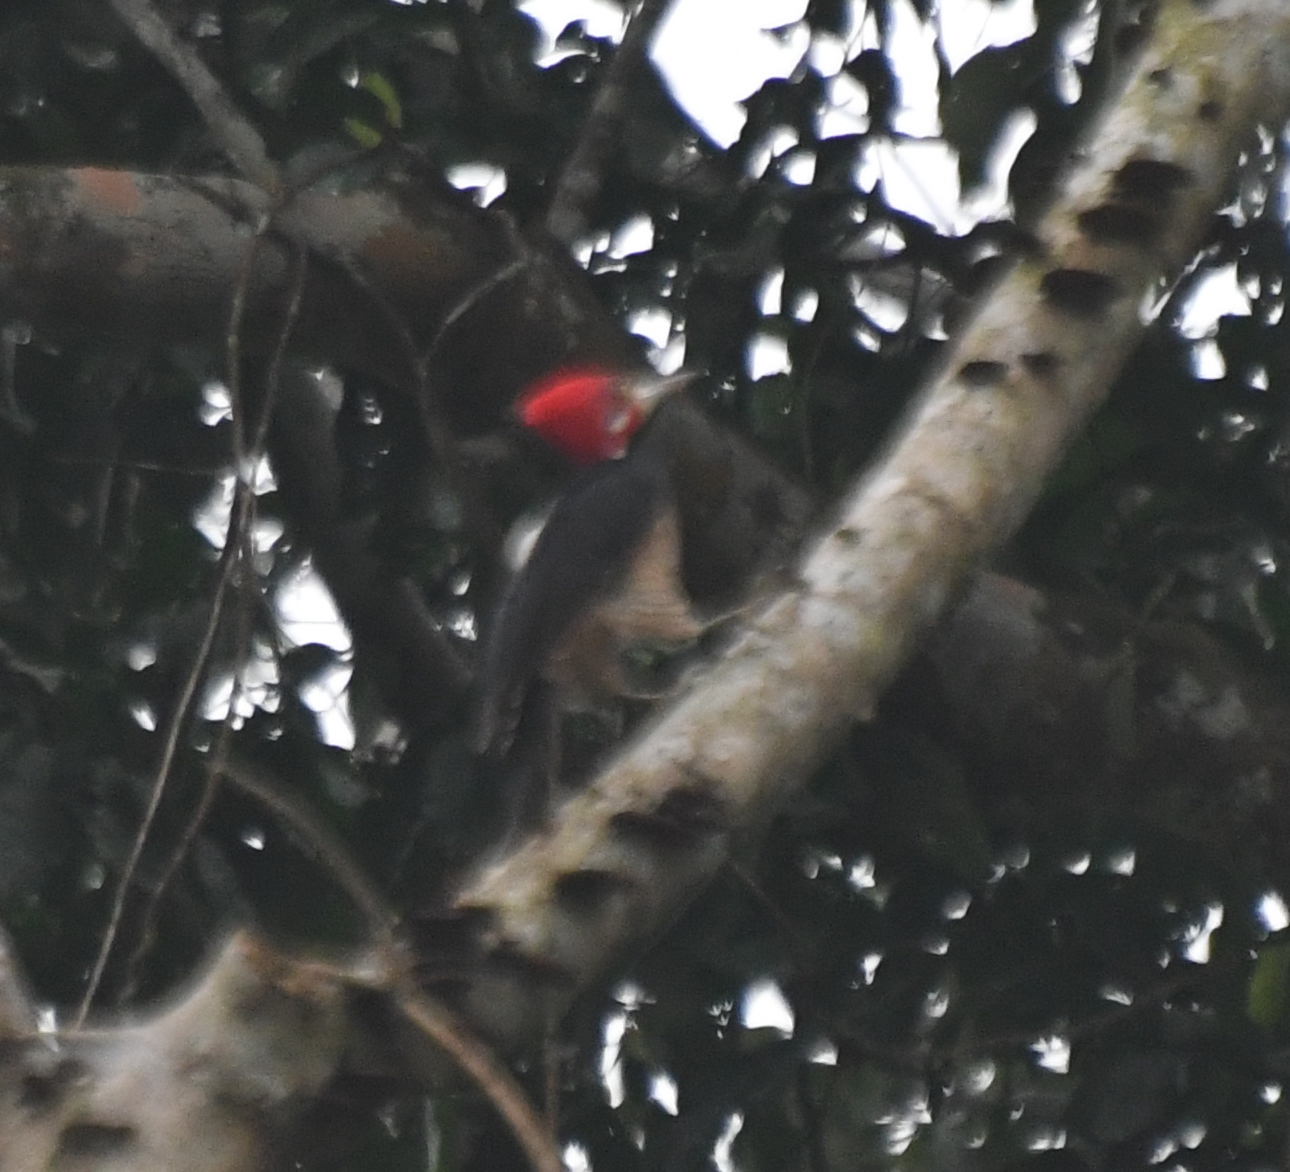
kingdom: Animalia
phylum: Chordata
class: Aves
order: Piciformes
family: Picidae
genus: Campephilus
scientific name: Campephilus melanoleucos
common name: Crimson-crested woodpecker
